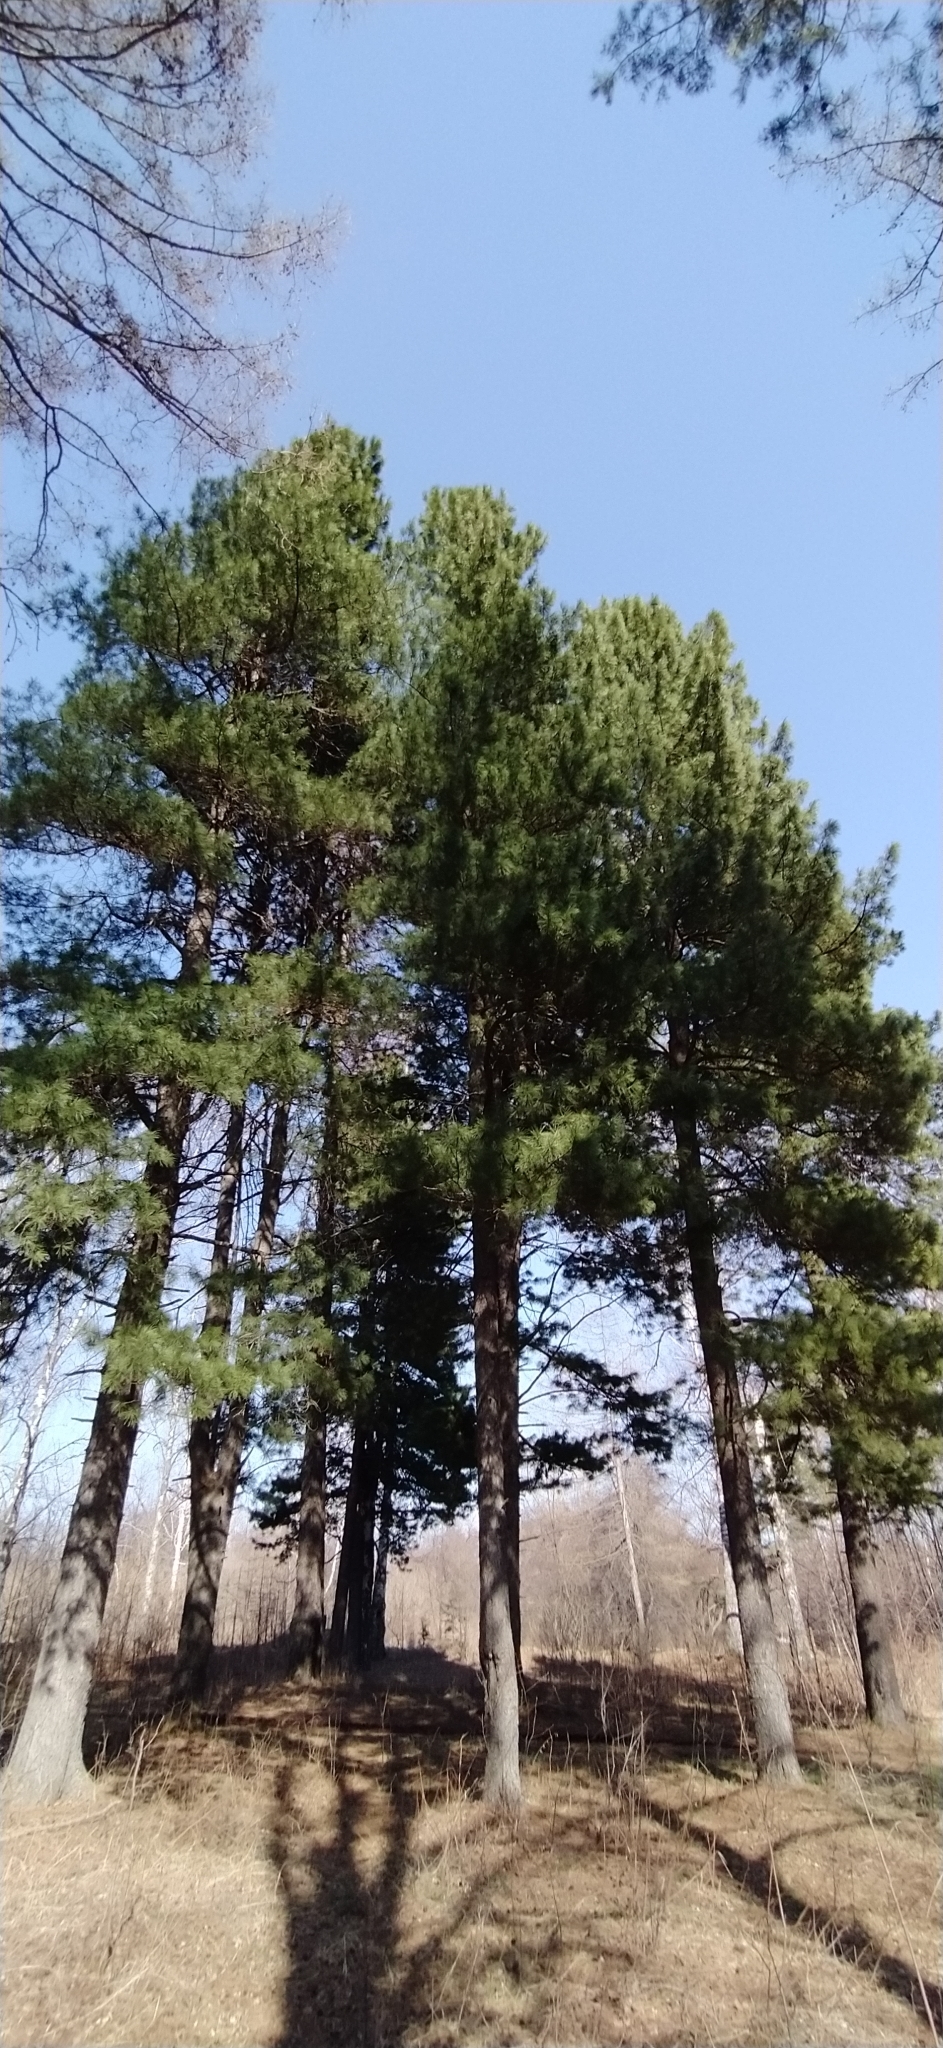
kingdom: Plantae
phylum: Tracheophyta
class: Pinopsida
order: Pinales
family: Pinaceae
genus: Pinus
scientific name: Pinus sibirica
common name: Siberian pine
